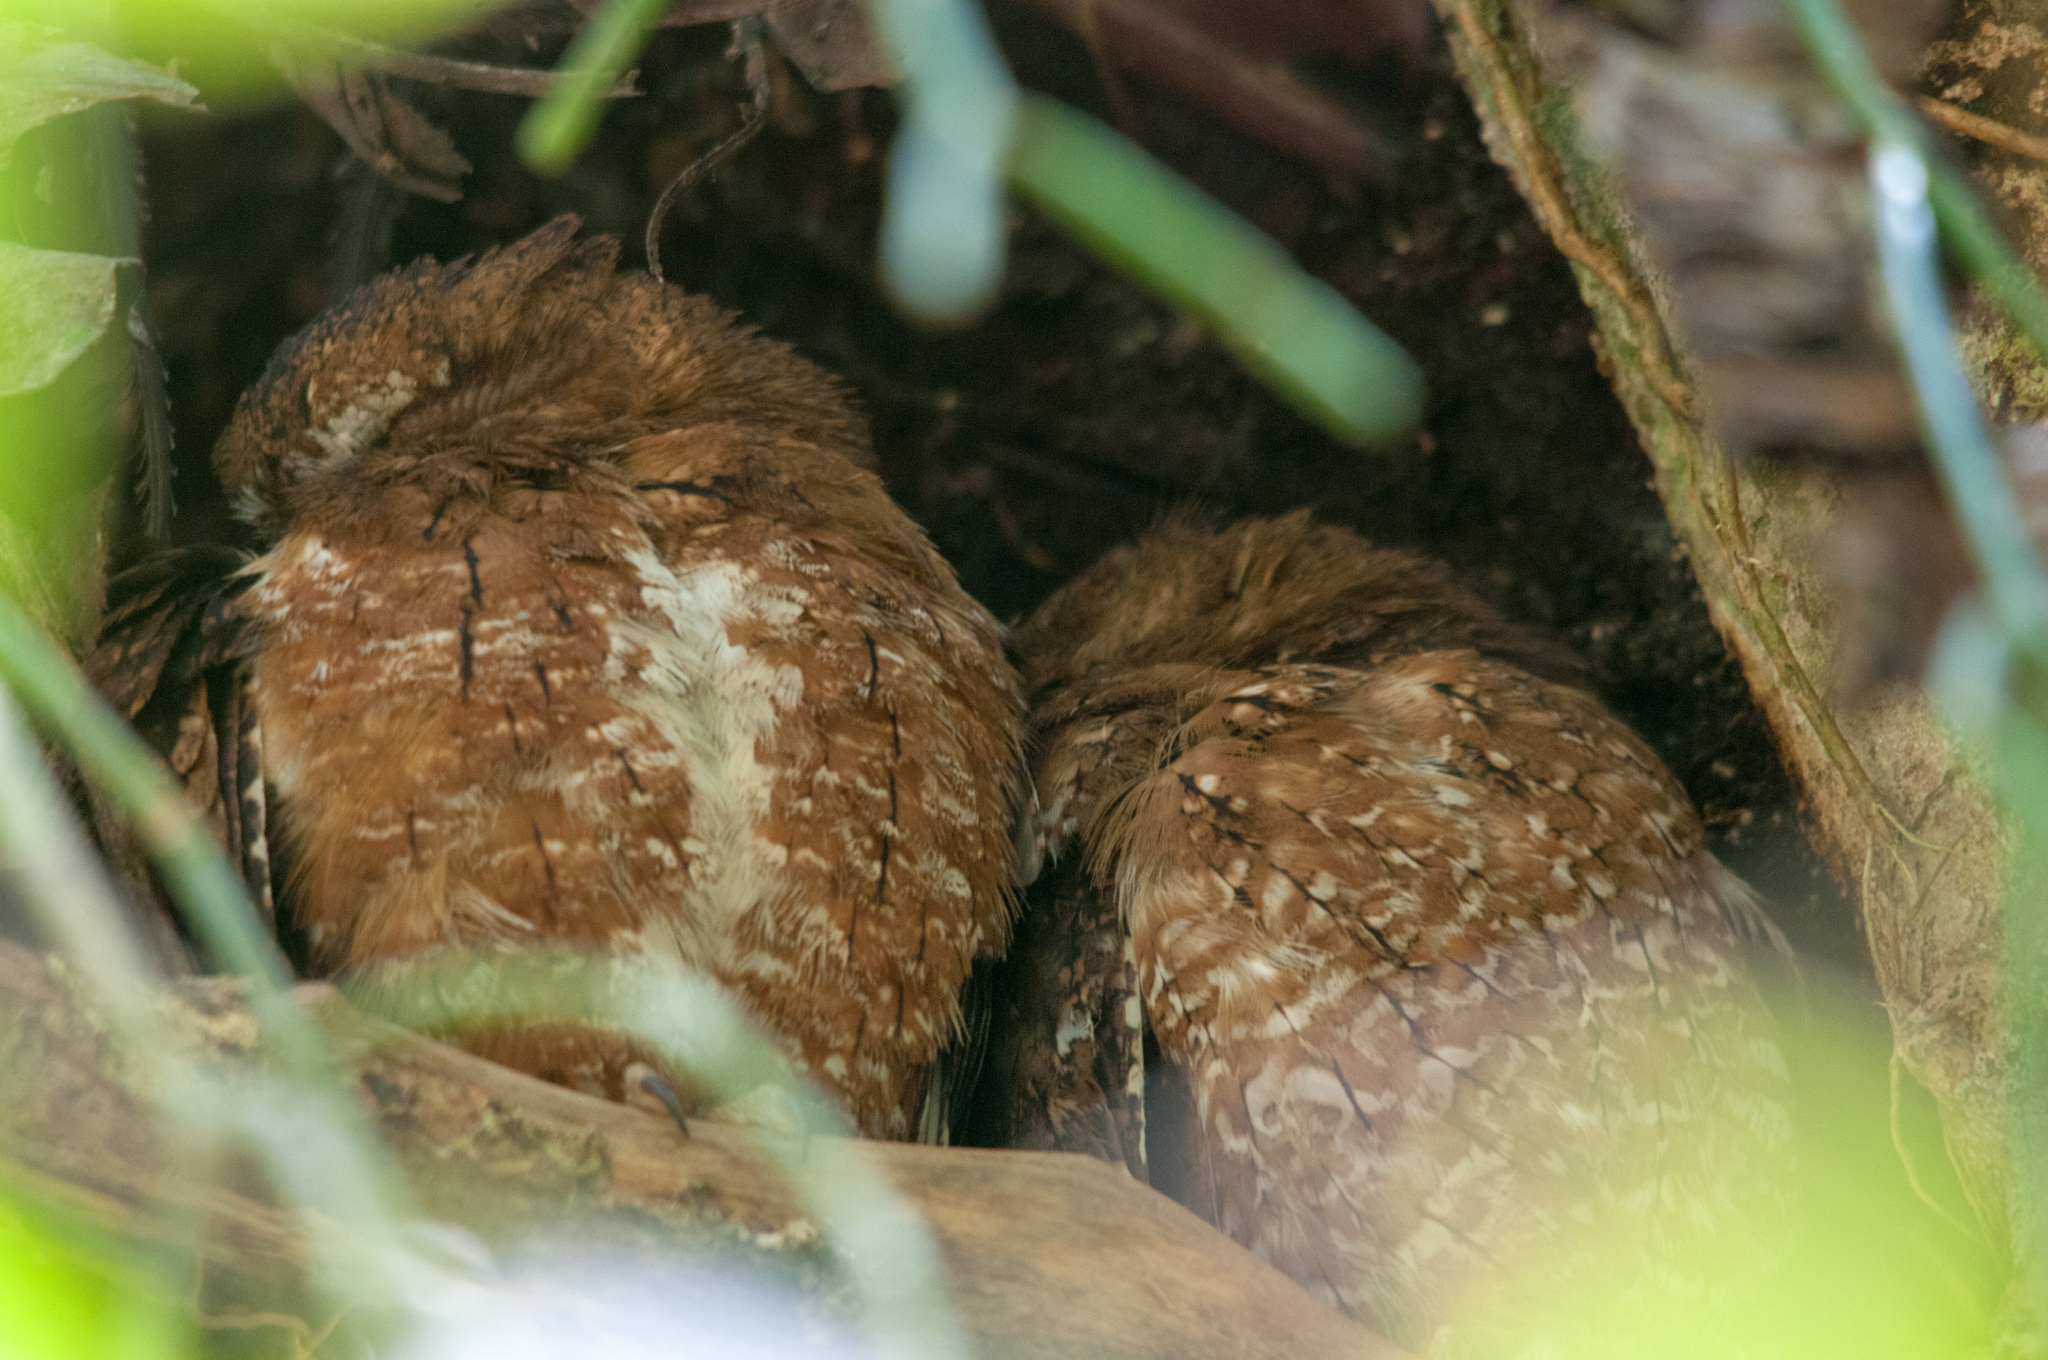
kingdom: Animalia
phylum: Chordata
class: Aves
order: Strigiformes
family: Strigidae
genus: Otus
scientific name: Otus rutilus
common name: Rainforest scops owl
